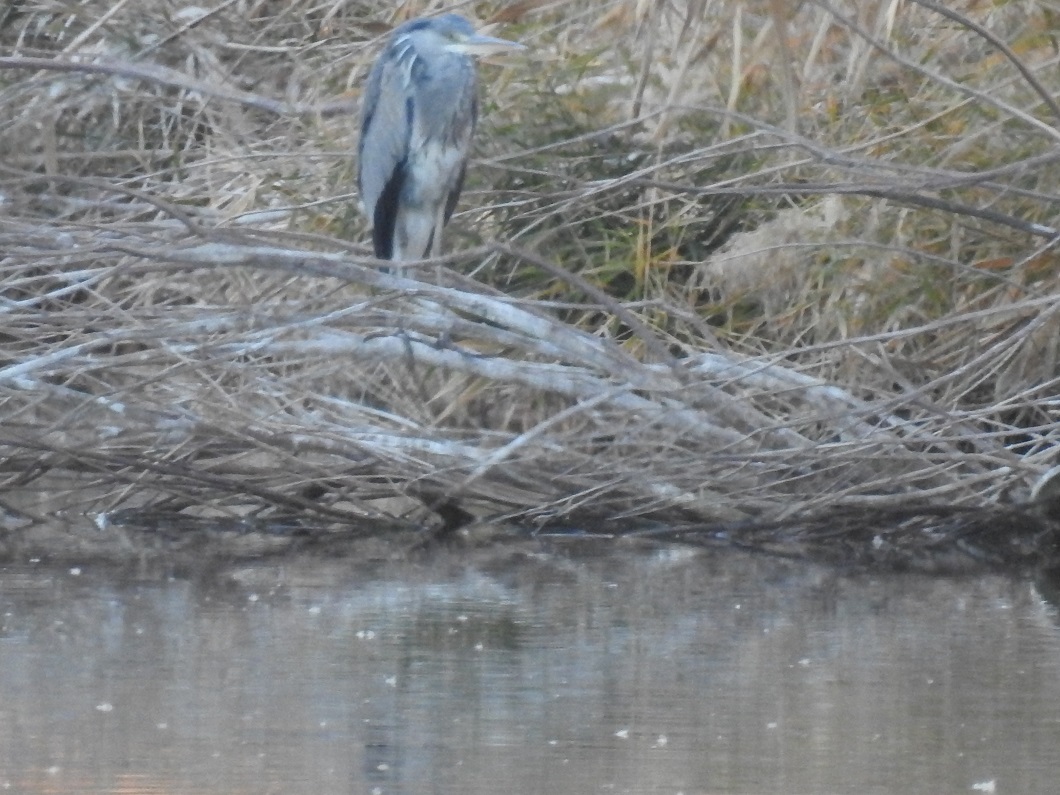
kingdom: Animalia
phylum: Chordata
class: Aves
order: Pelecaniformes
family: Ardeidae
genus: Ardea
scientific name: Ardea cinerea
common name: Grey heron
